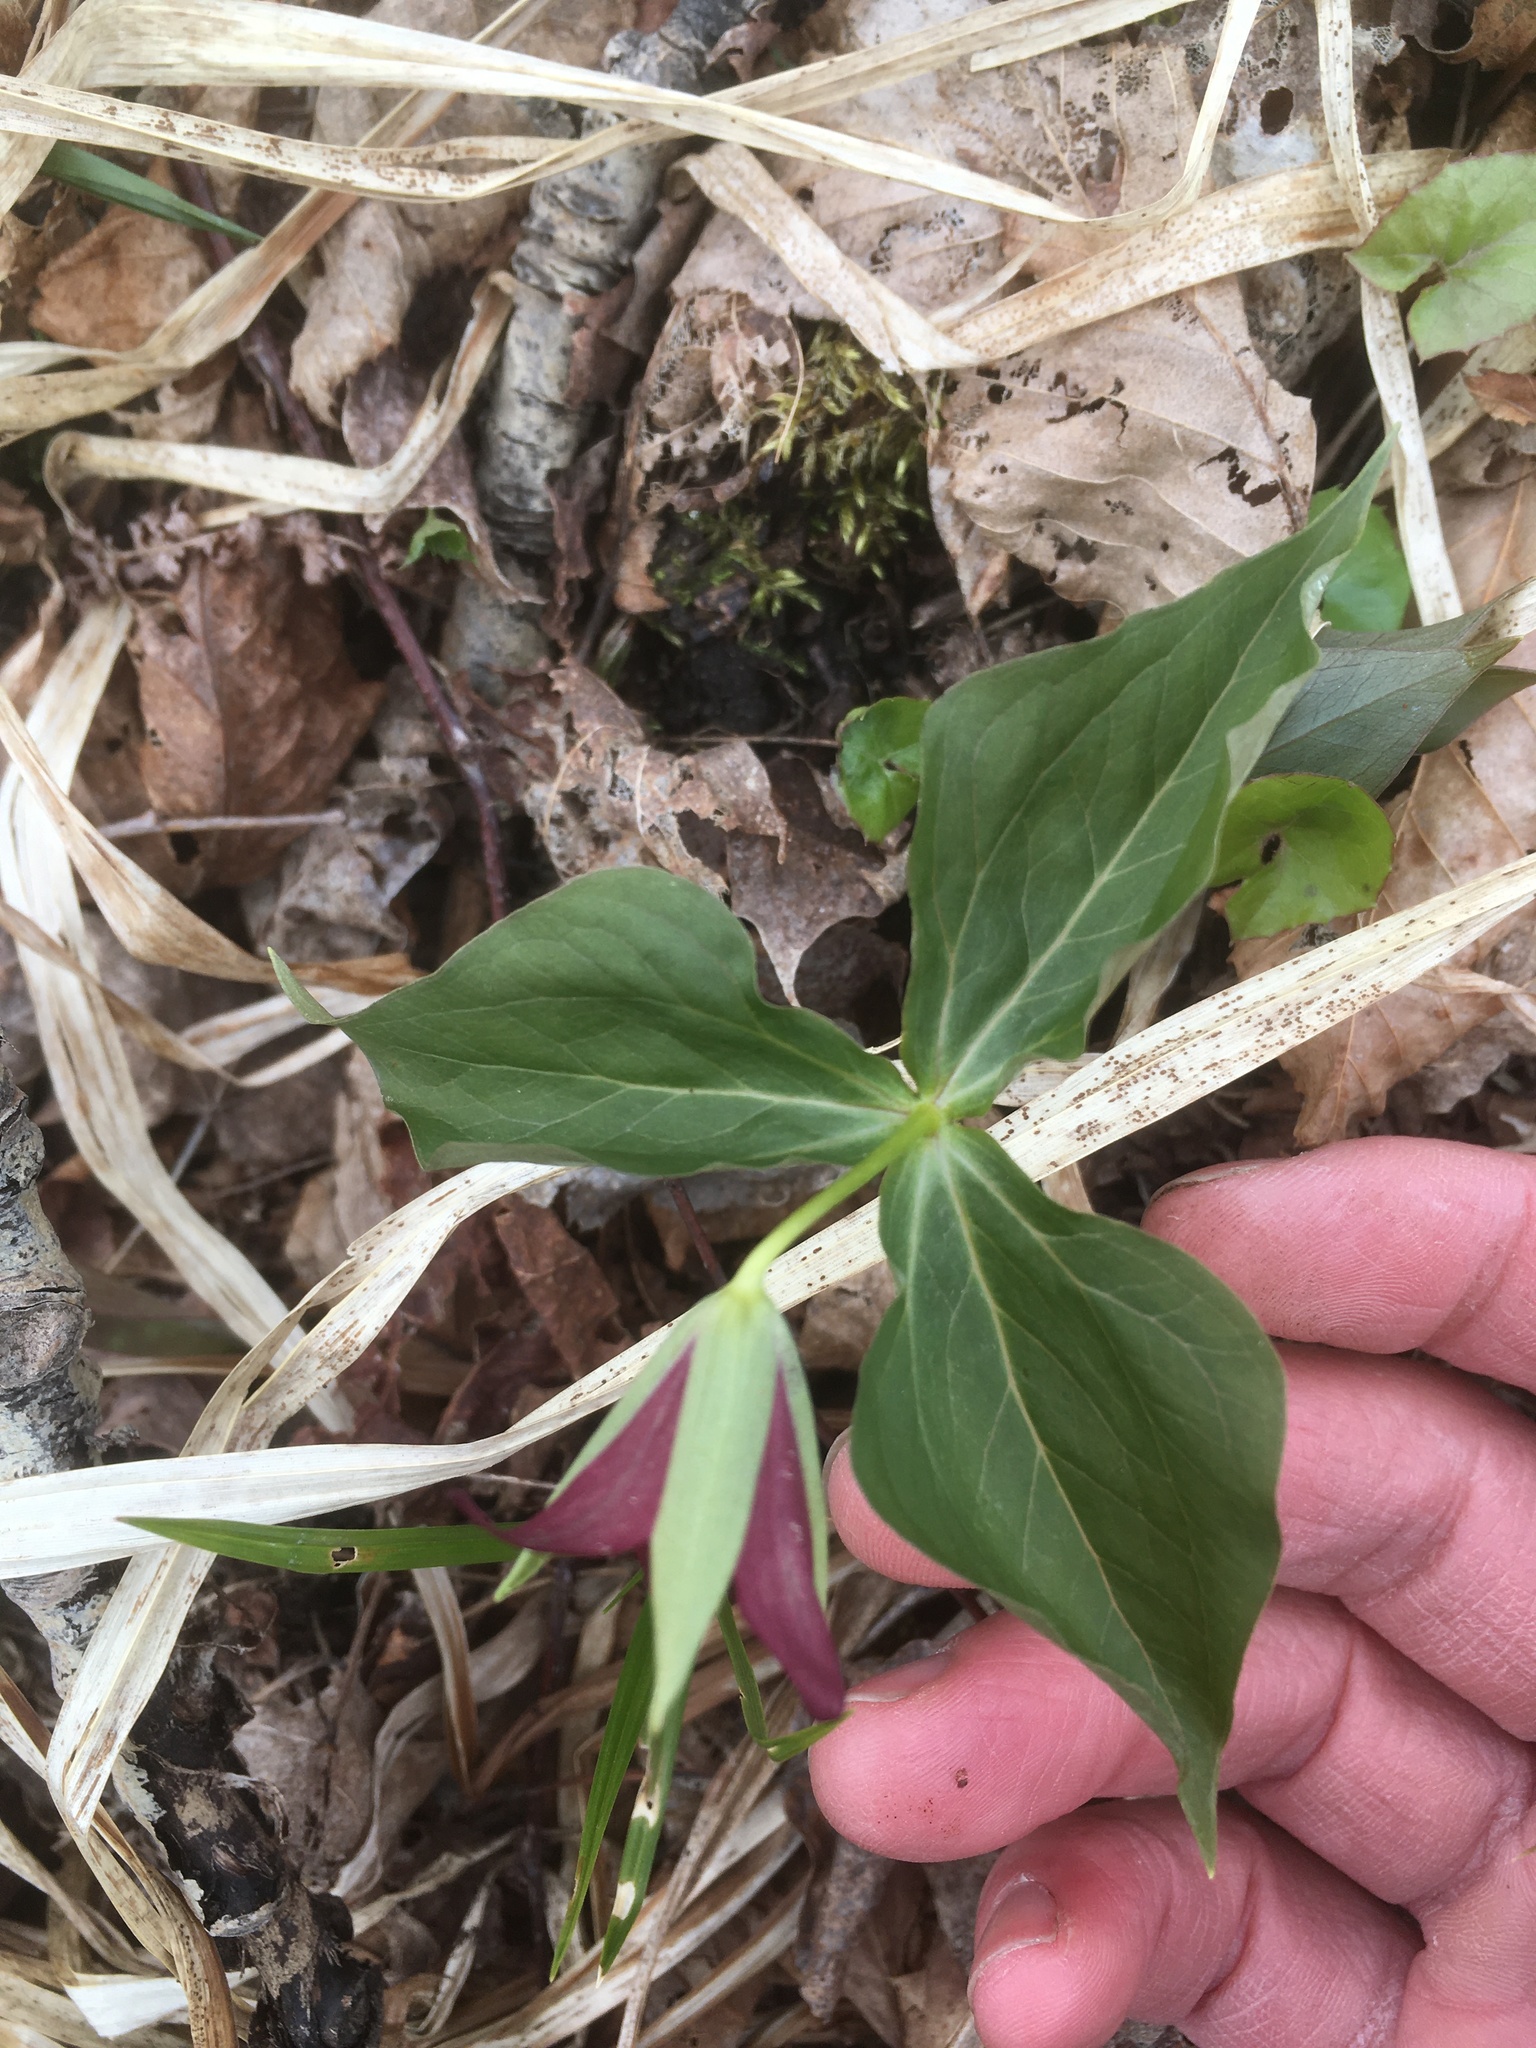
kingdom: Plantae
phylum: Tracheophyta
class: Liliopsida
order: Liliales
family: Melanthiaceae
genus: Trillium
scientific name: Trillium erectum
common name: Purple trillium
